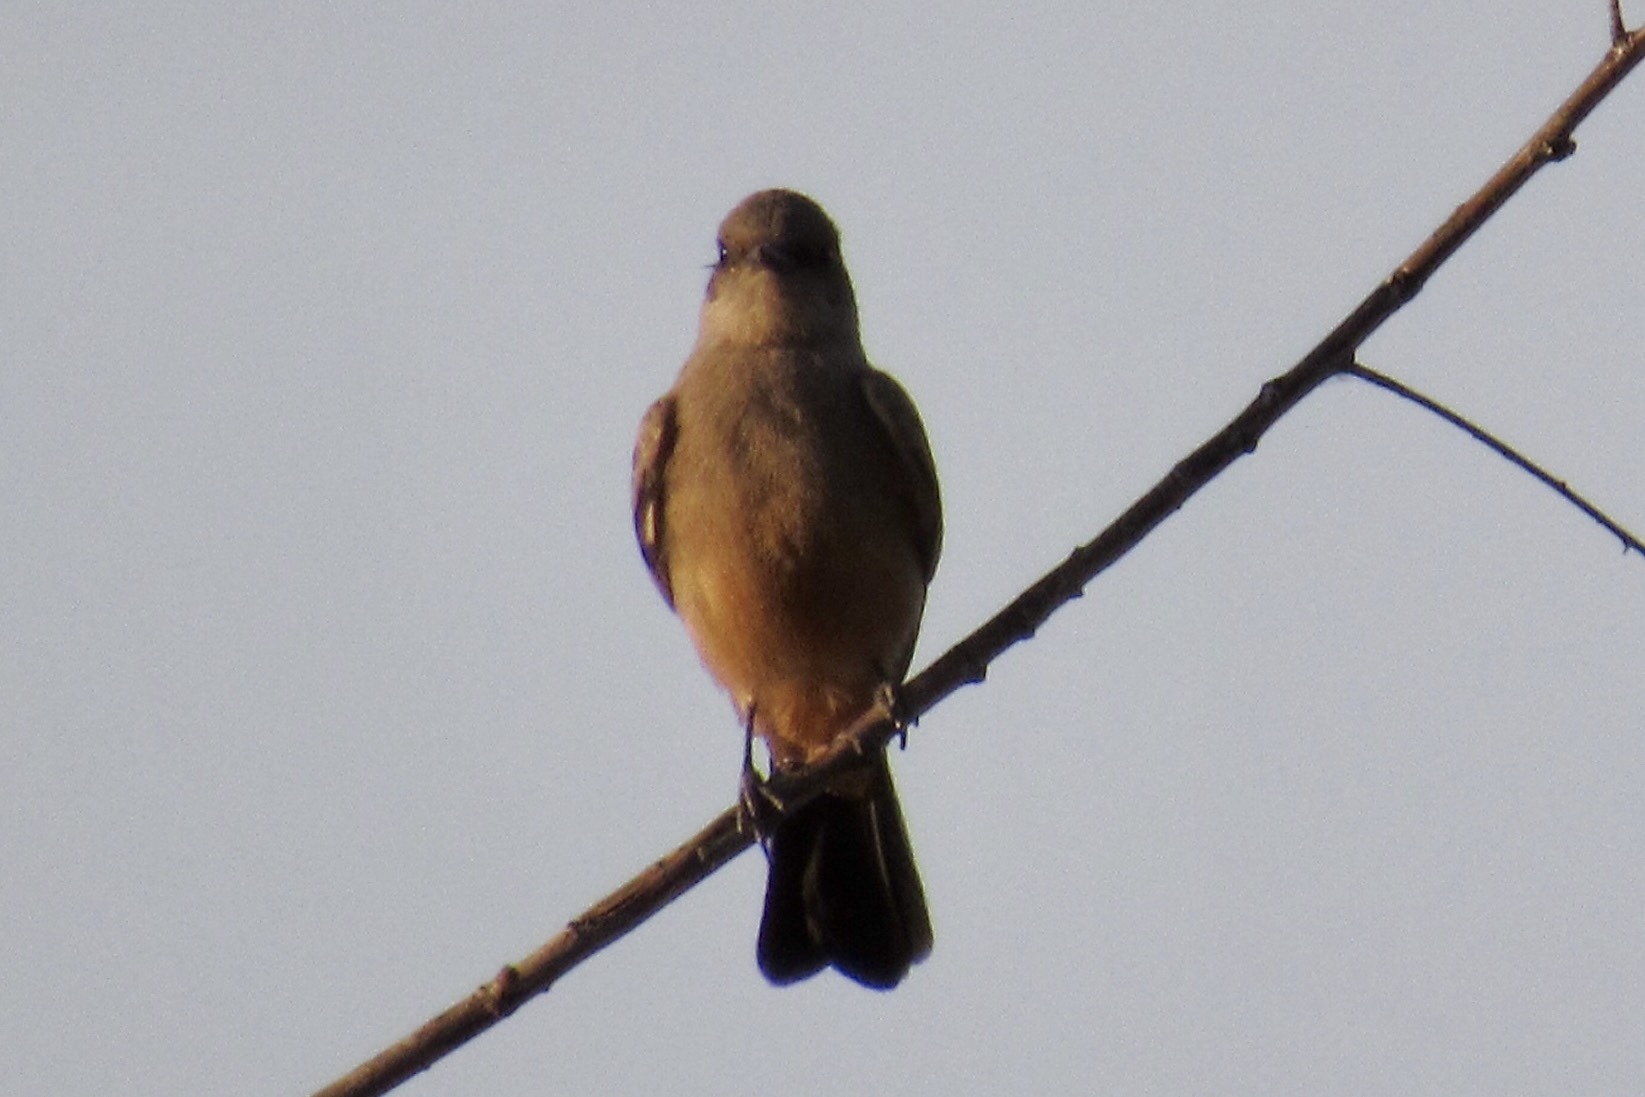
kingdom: Animalia
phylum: Chordata
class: Aves
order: Passeriformes
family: Tyrannidae
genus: Sayornis
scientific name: Sayornis saya
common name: Say's phoebe
